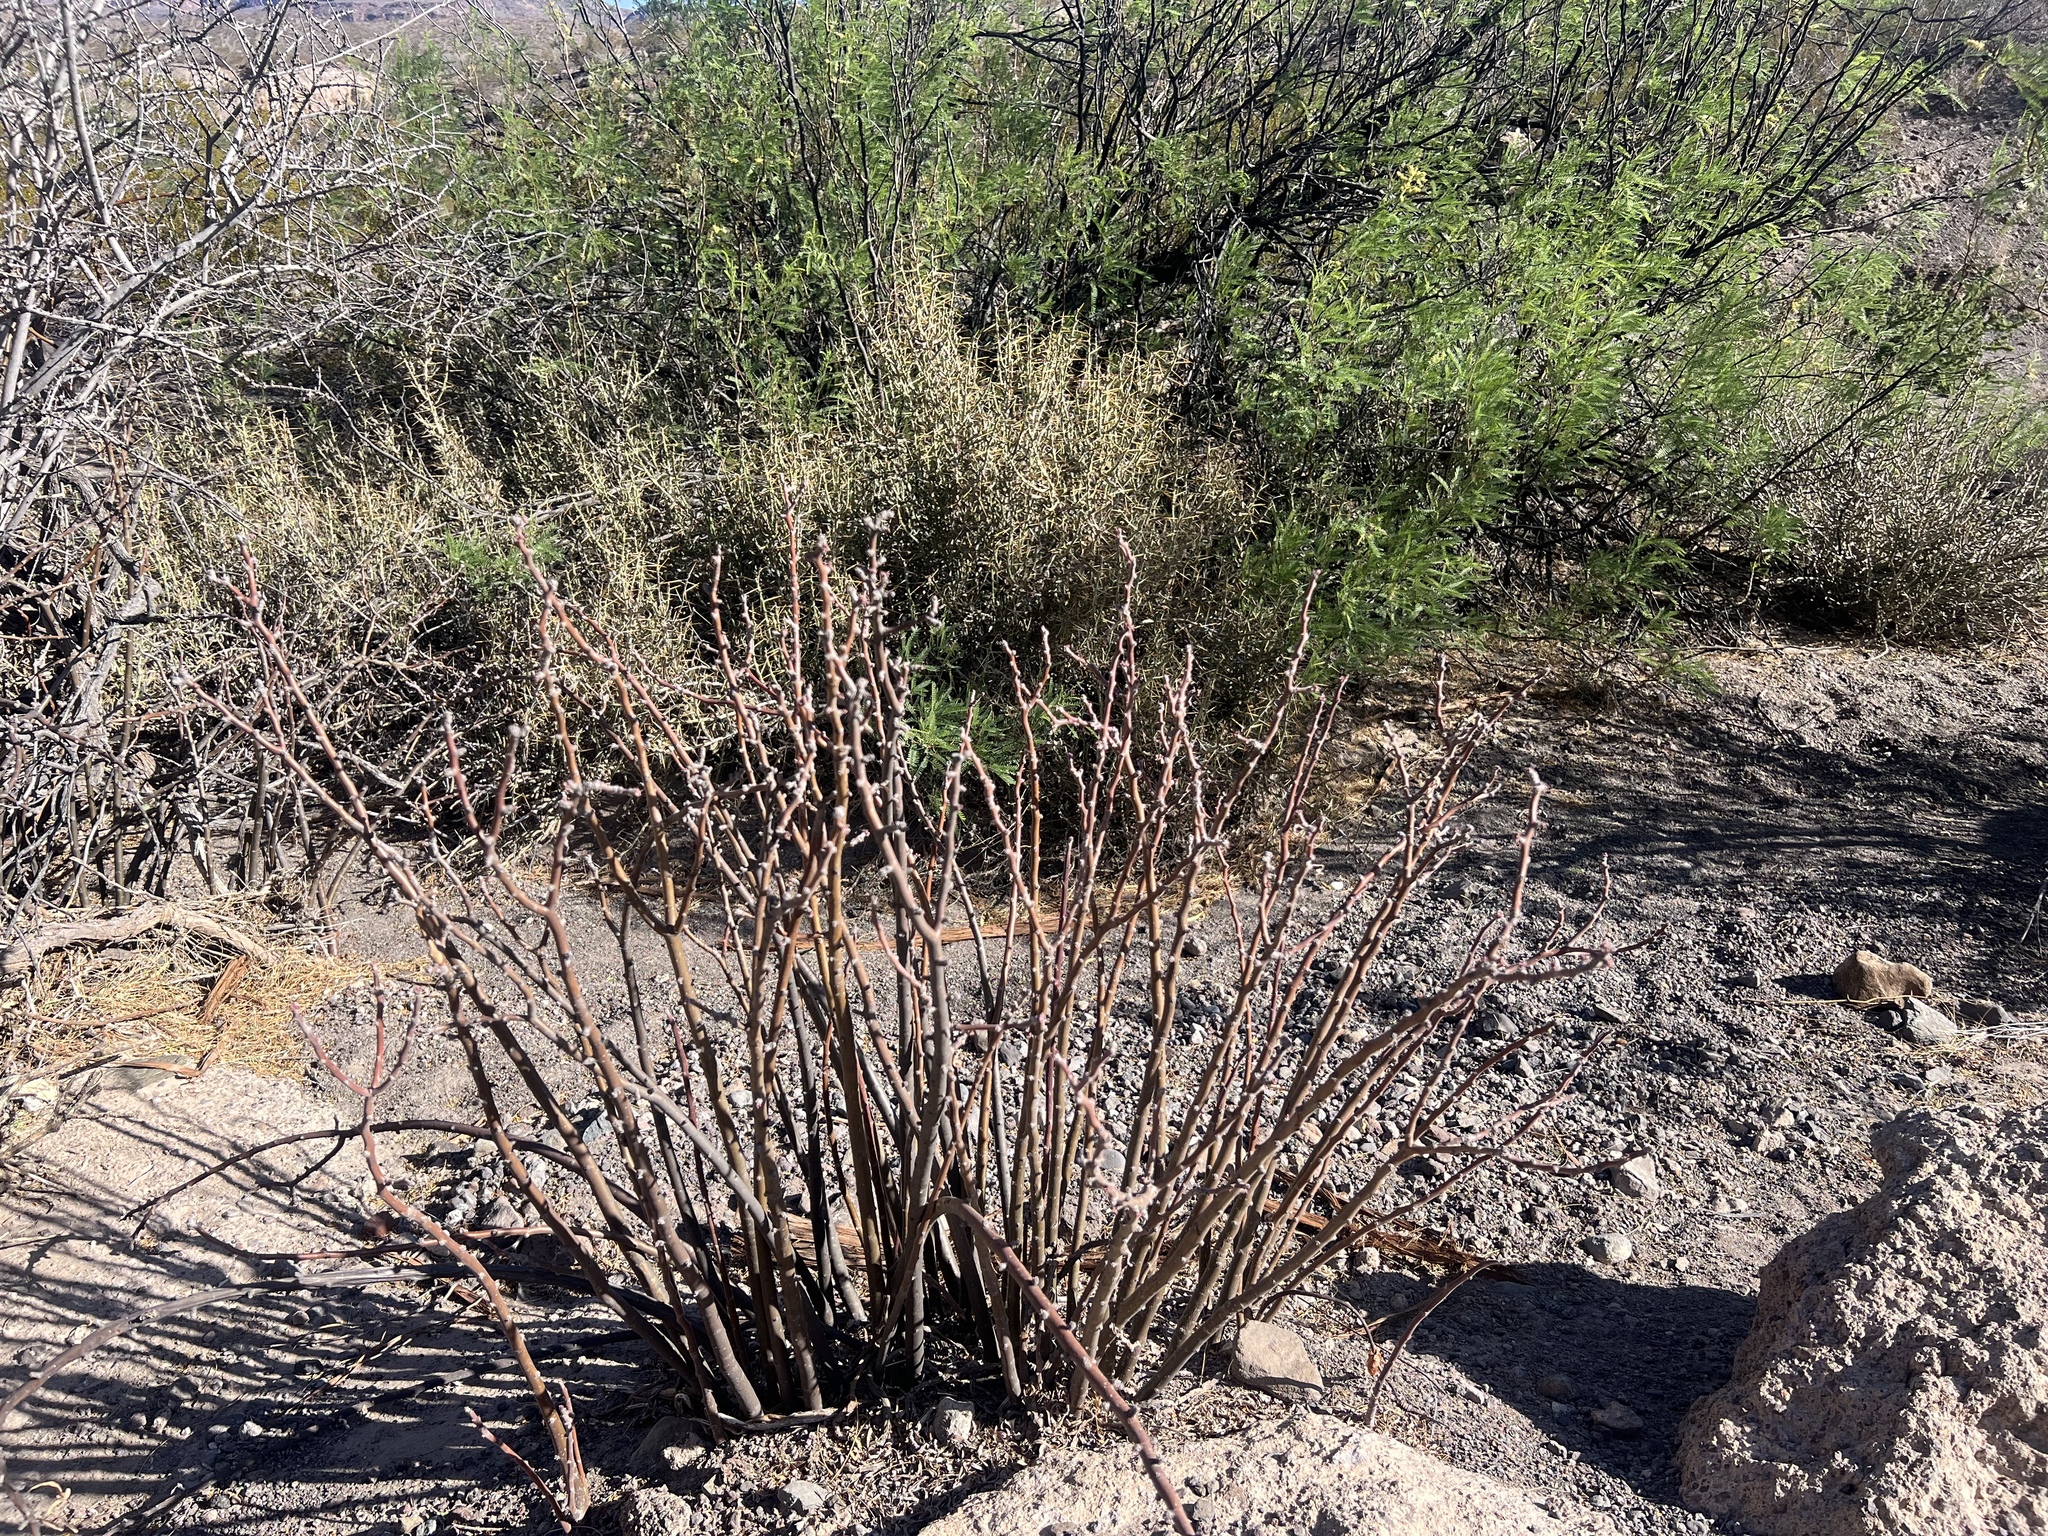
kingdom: Plantae
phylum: Tracheophyta
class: Magnoliopsida
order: Malpighiales
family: Euphorbiaceae
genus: Jatropha
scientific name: Jatropha dioica
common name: Leatherstem
